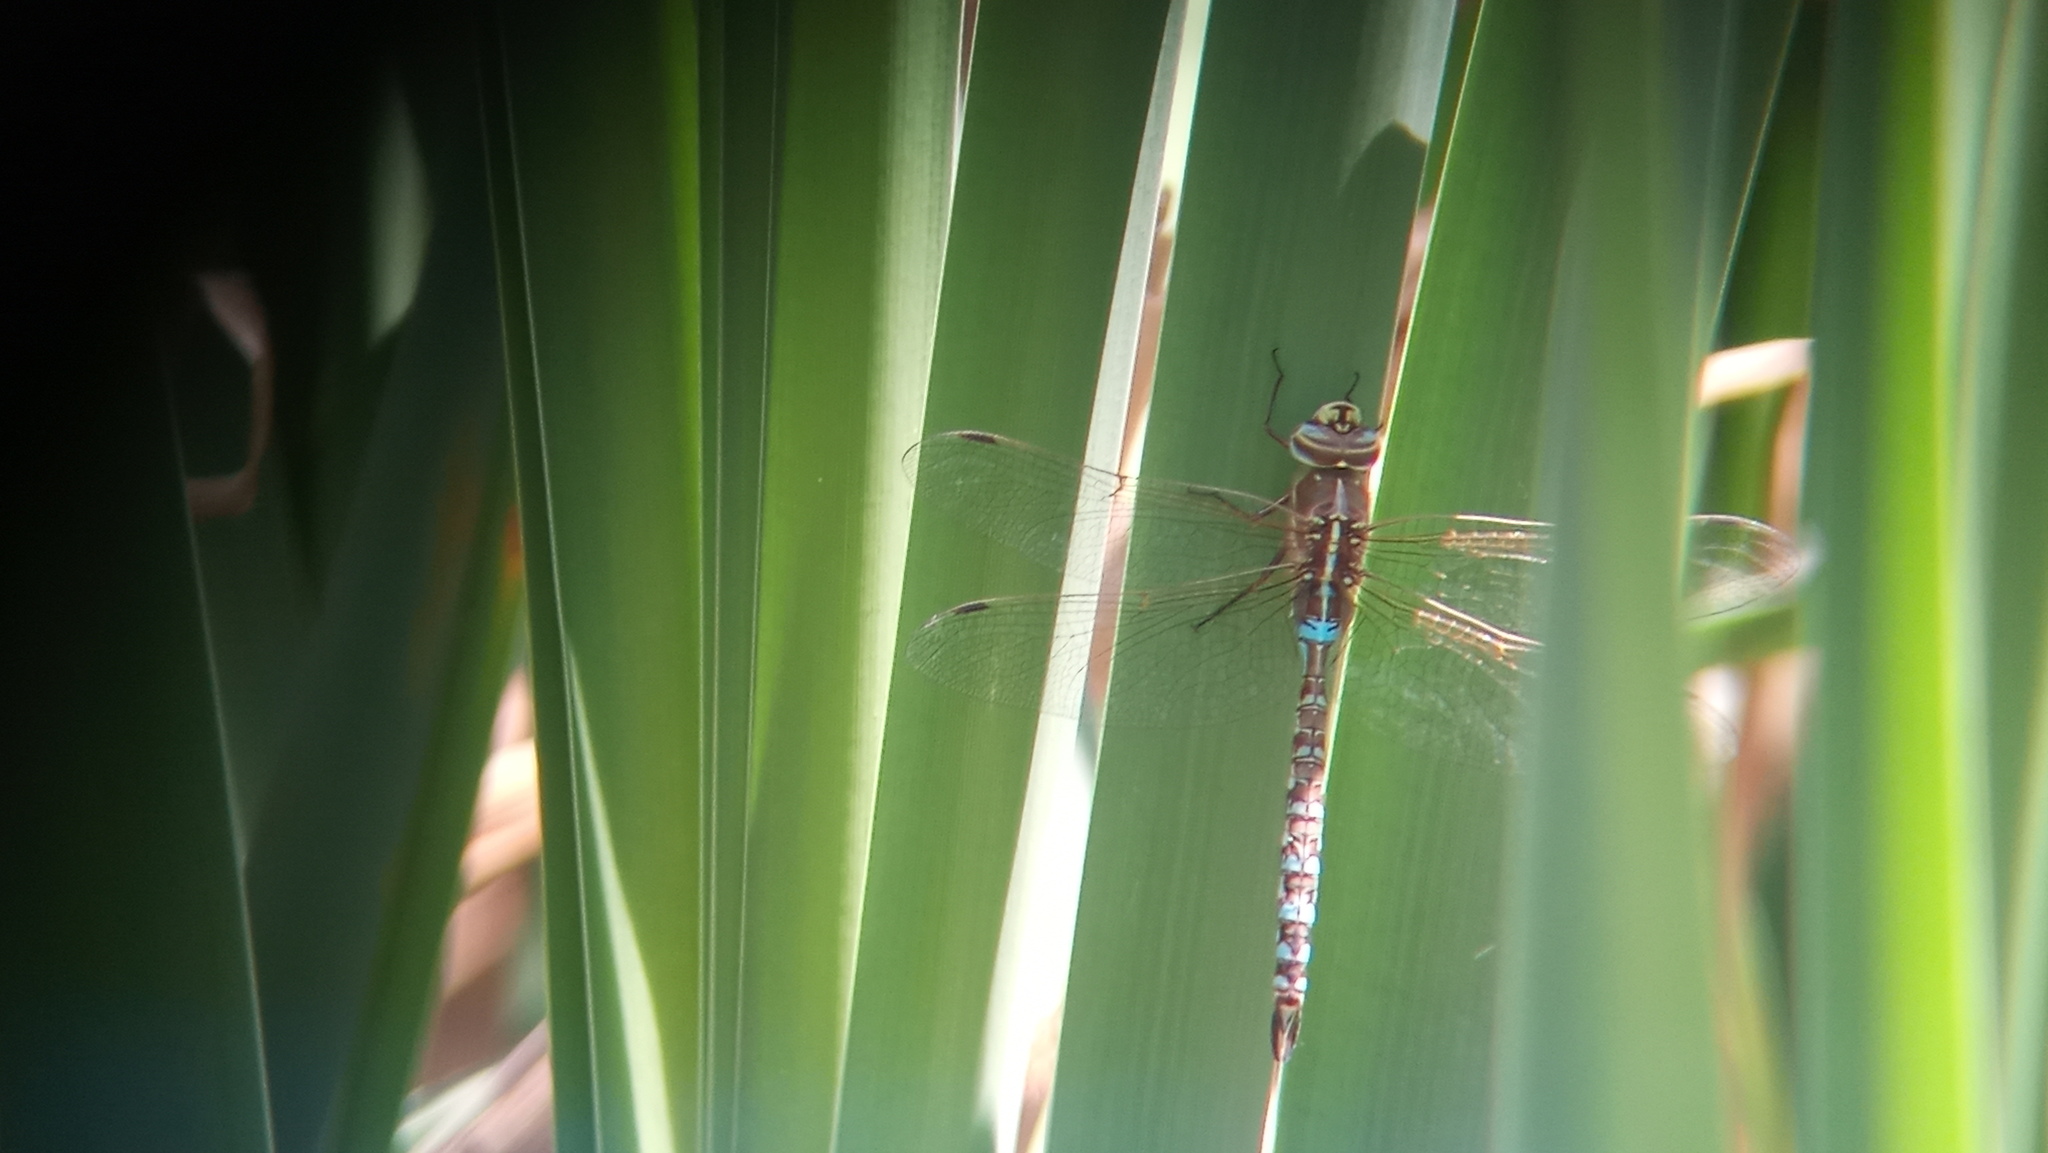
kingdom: Animalia
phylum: Arthropoda
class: Insecta
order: Odonata
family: Aeshnidae
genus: Rhionaeschna
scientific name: Rhionaeschna bonariensis
